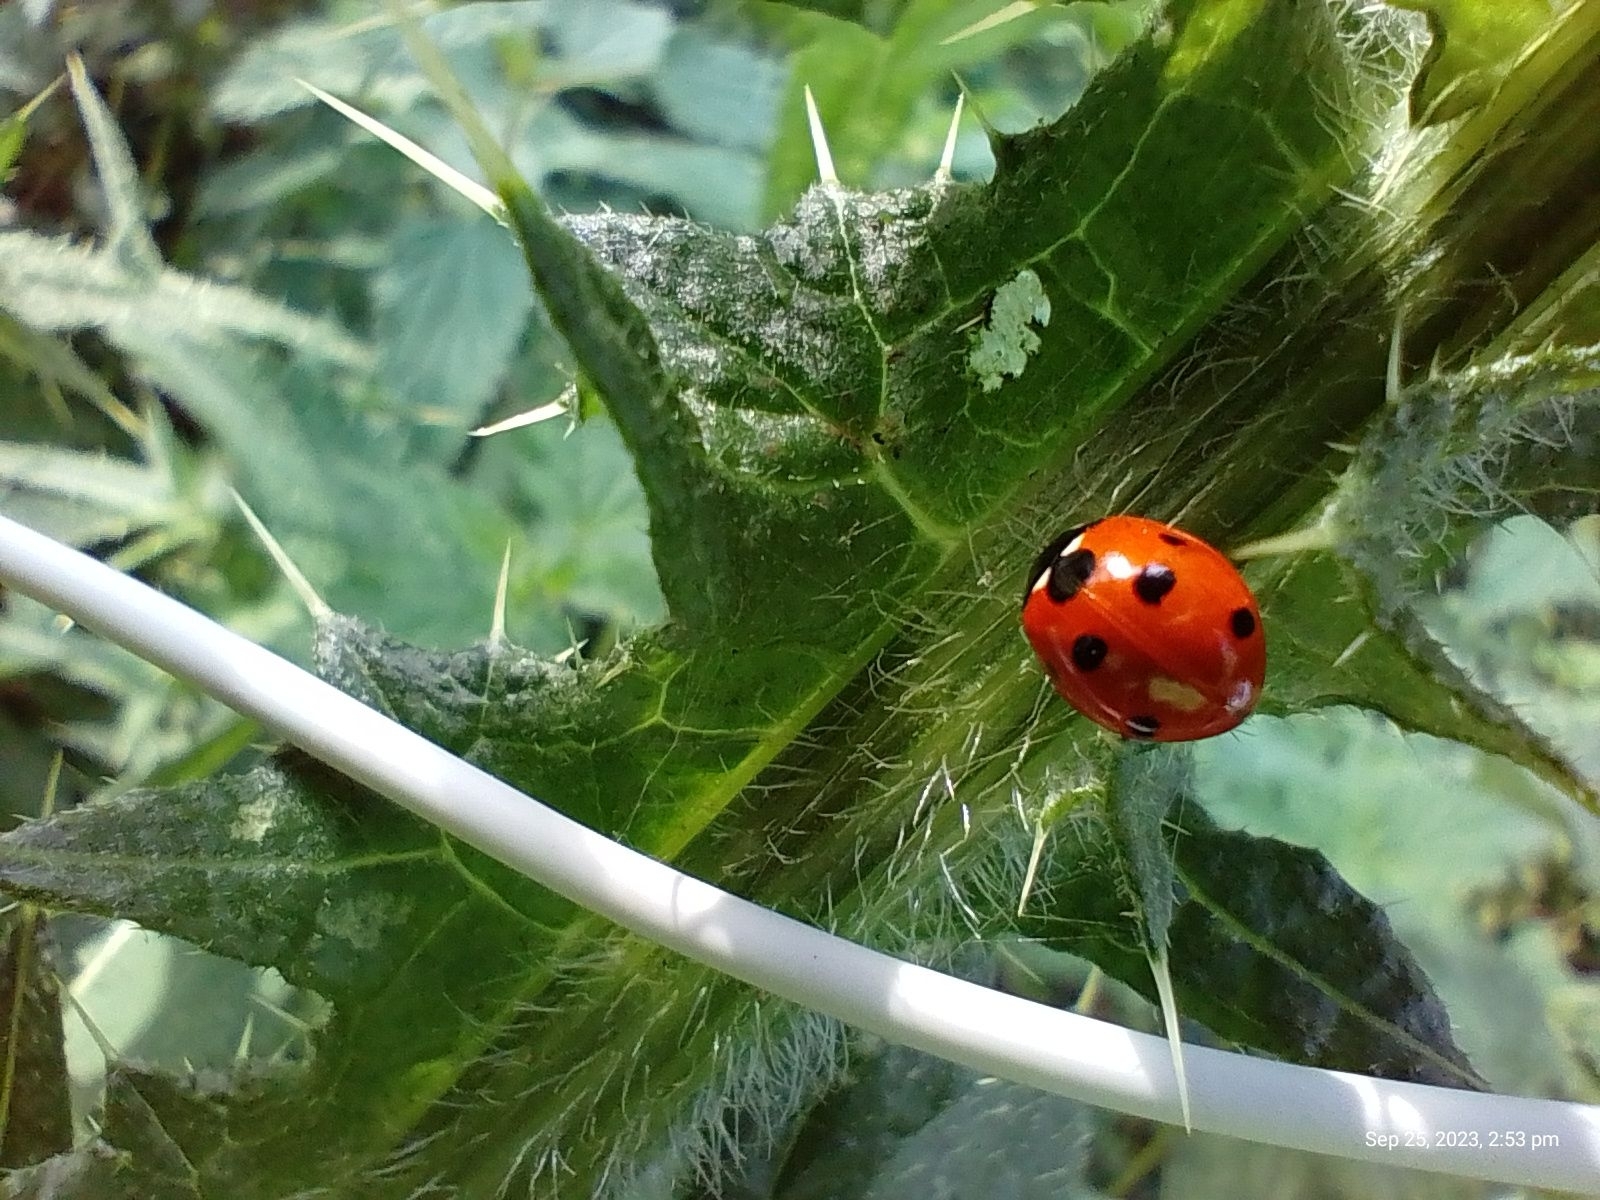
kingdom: Animalia
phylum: Arthropoda
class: Insecta
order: Coleoptera
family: Coccinellidae
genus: Coccinella
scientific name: Coccinella septempunctata
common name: Sevenspotted lady beetle
